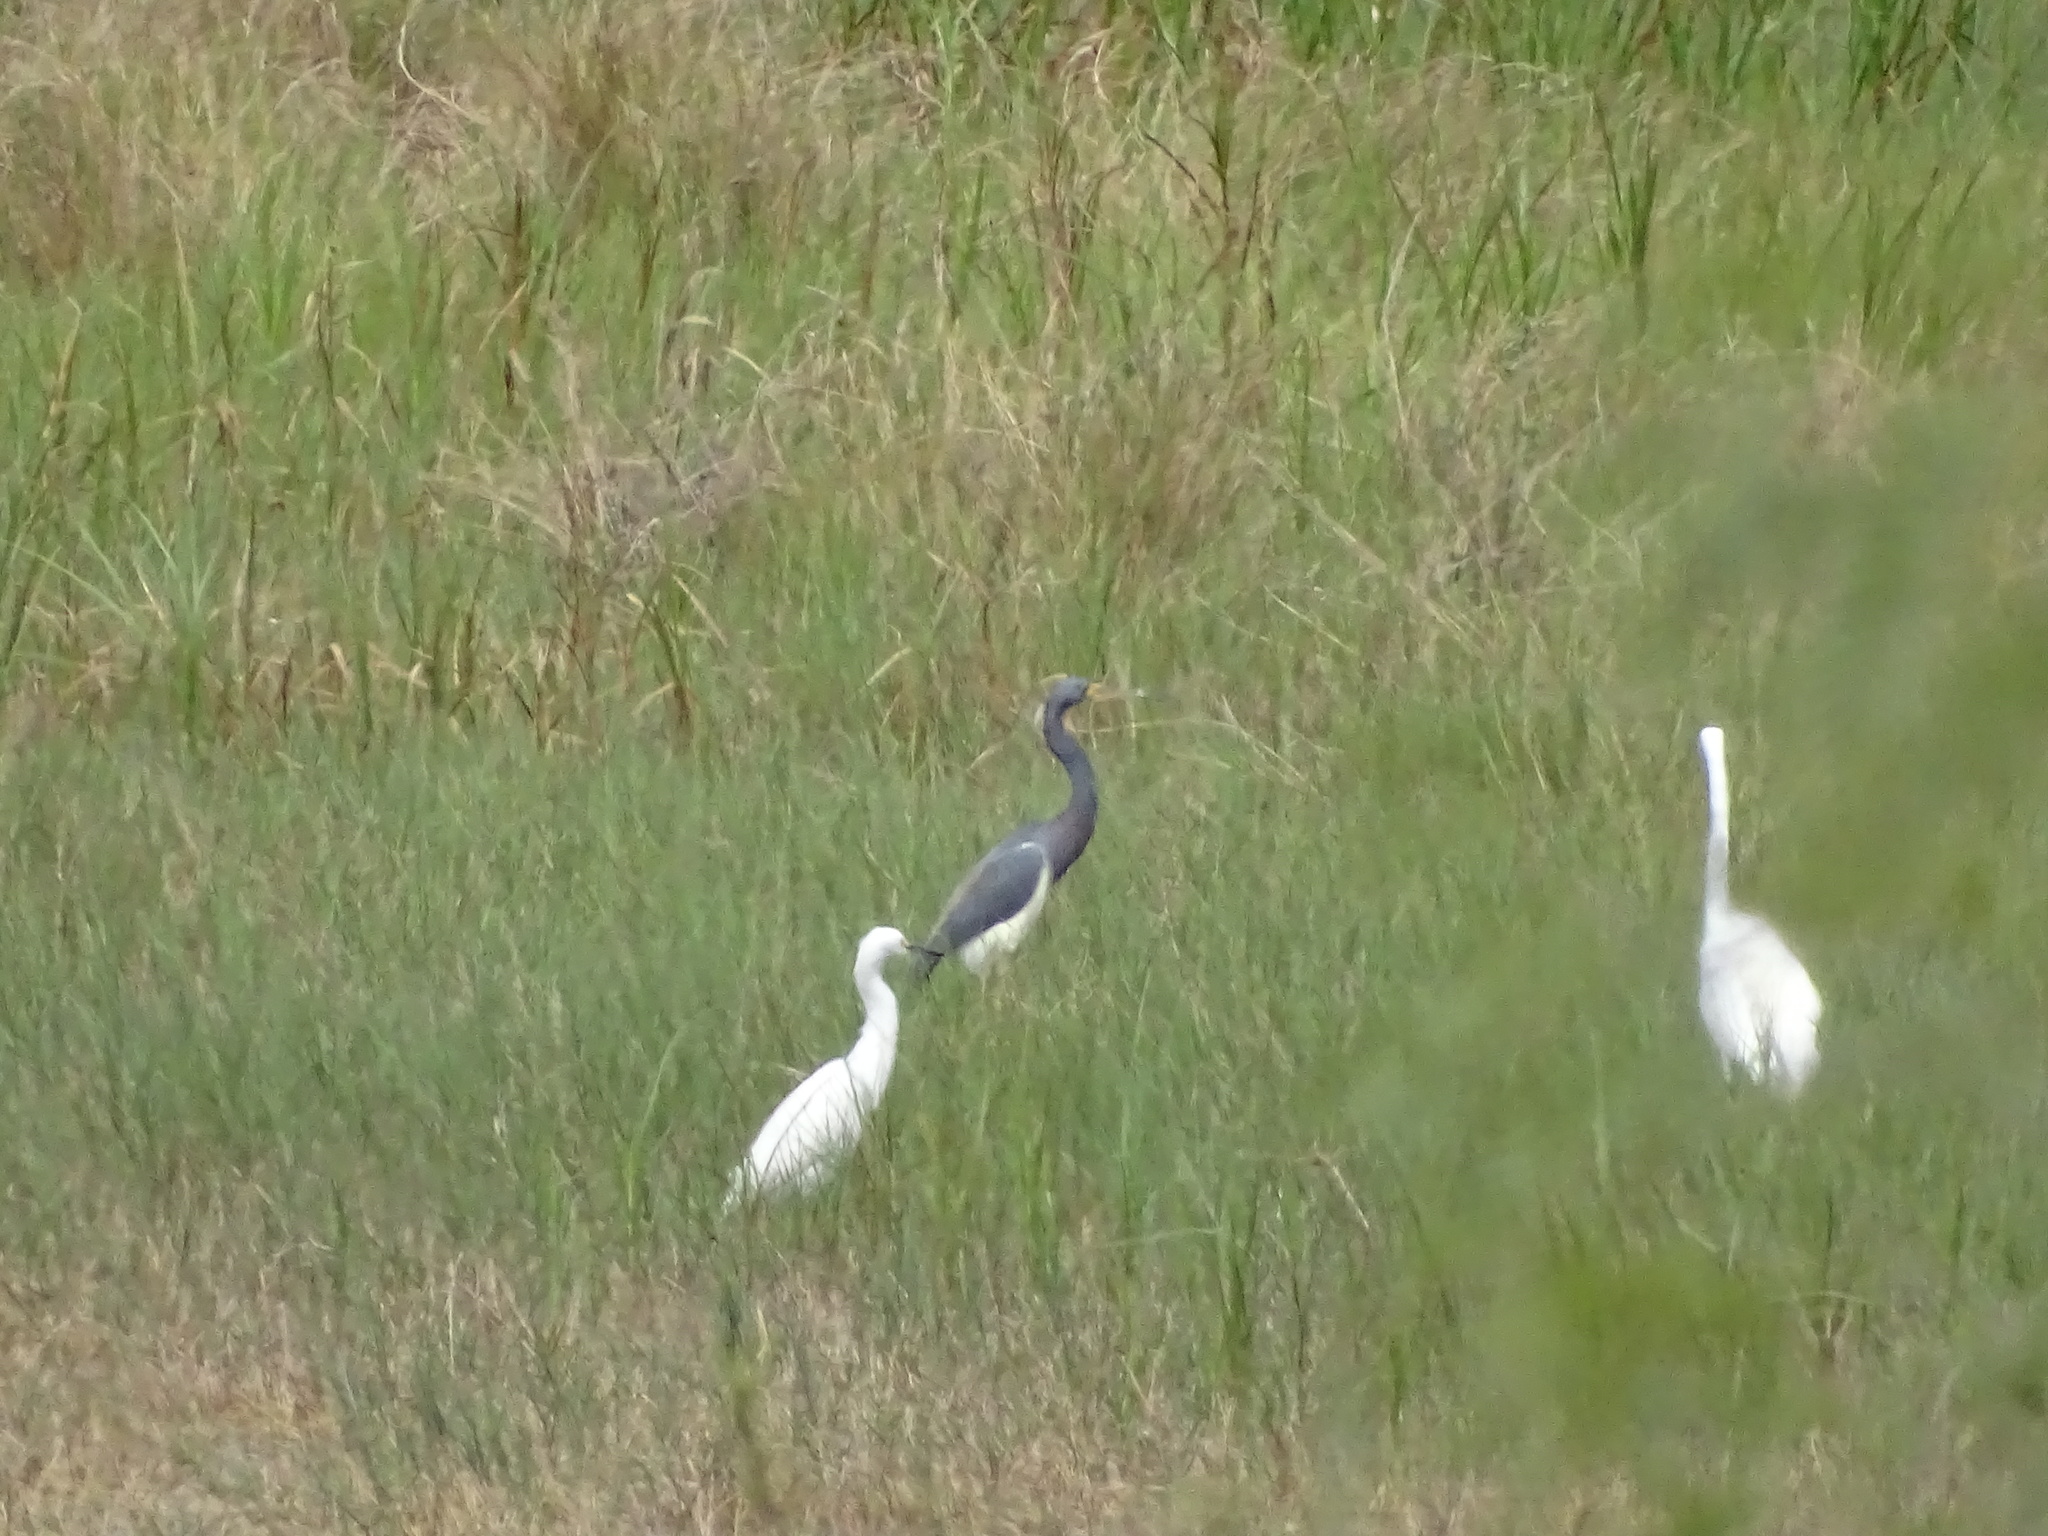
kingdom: Animalia
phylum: Chordata
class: Aves
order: Pelecaniformes
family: Ardeidae
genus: Egretta
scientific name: Egretta tricolor
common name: Tricolored heron
